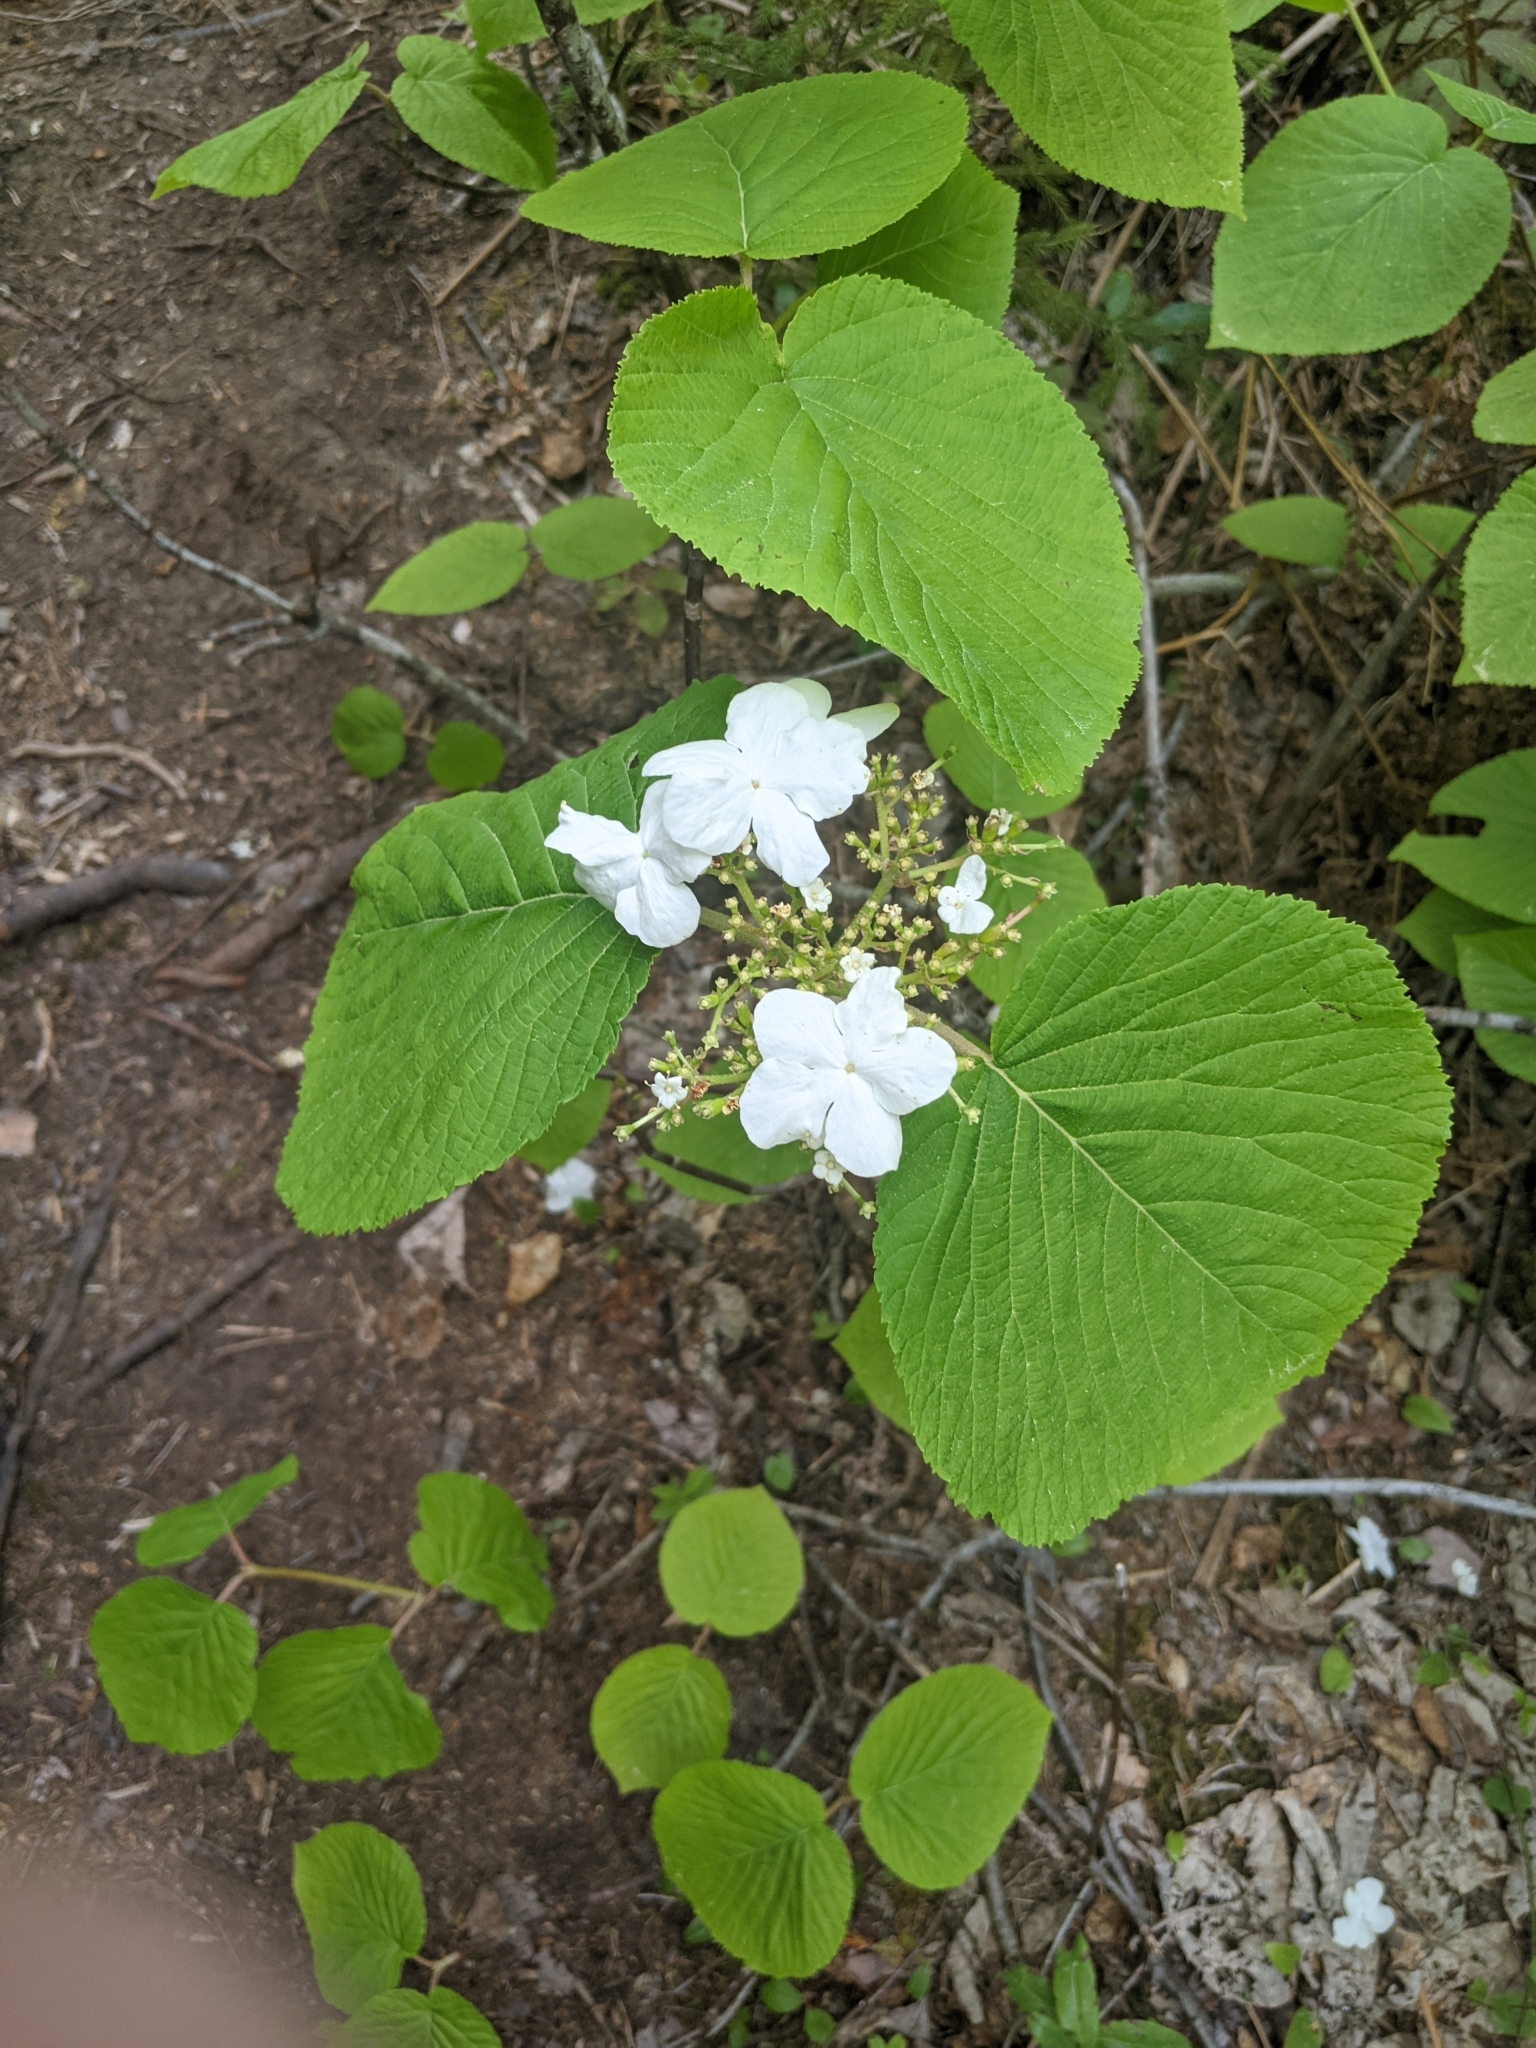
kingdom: Plantae
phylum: Tracheophyta
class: Magnoliopsida
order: Dipsacales
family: Viburnaceae
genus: Viburnum
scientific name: Viburnum lantanoides
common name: Hobblebush
